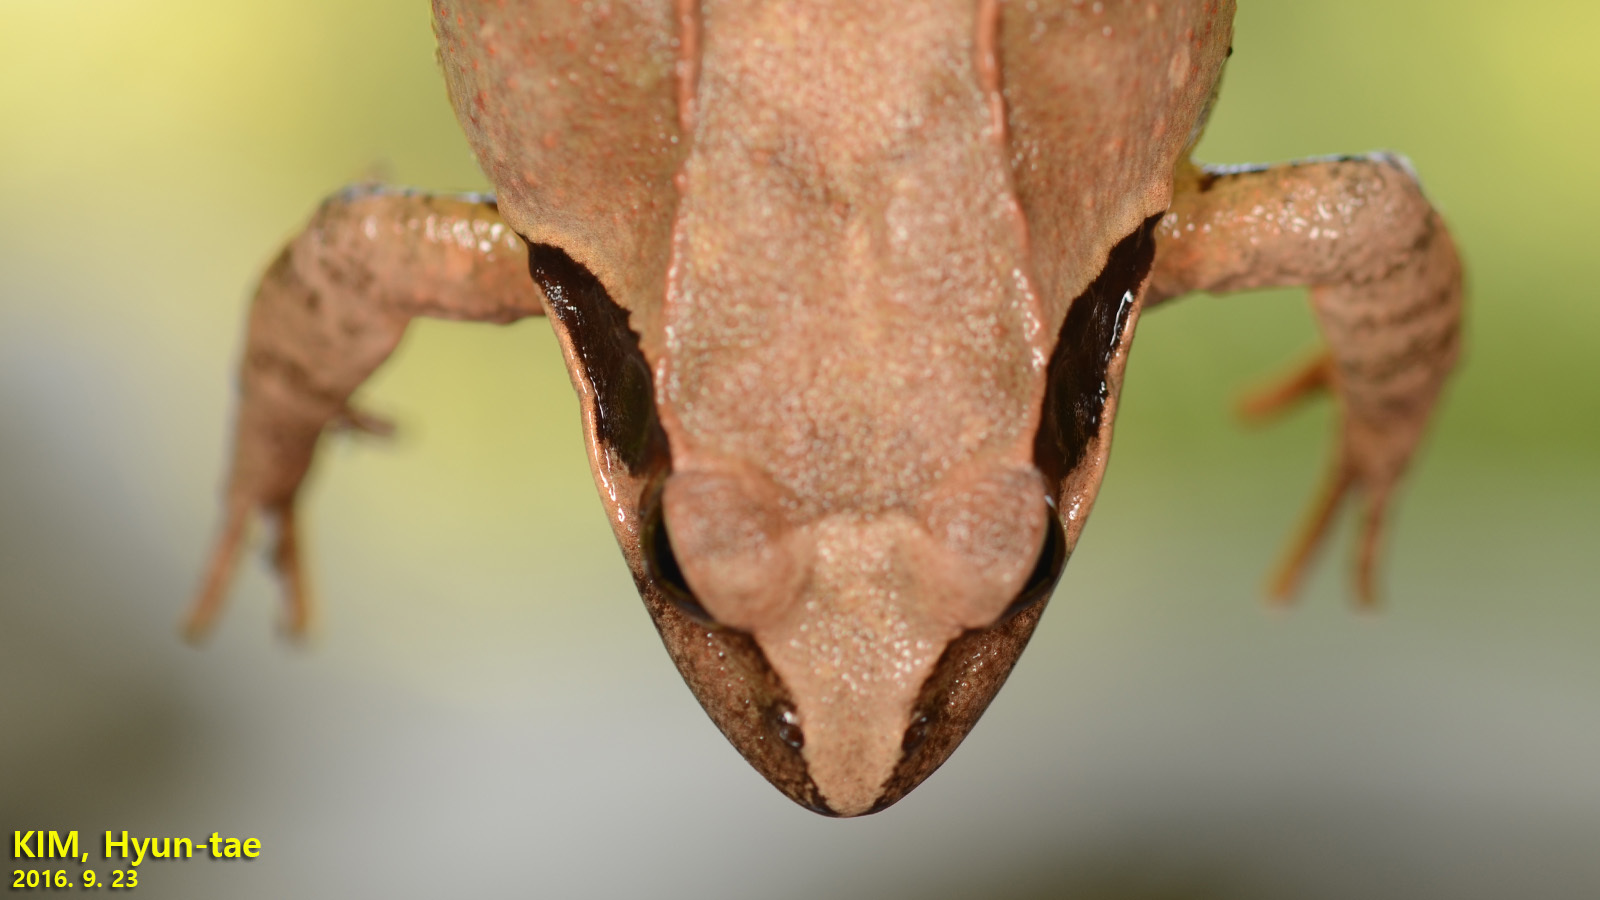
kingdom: Animalia
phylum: Chordata
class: Amphibia
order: Anura
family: Ranidae
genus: Rana
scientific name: Rana uenoi
